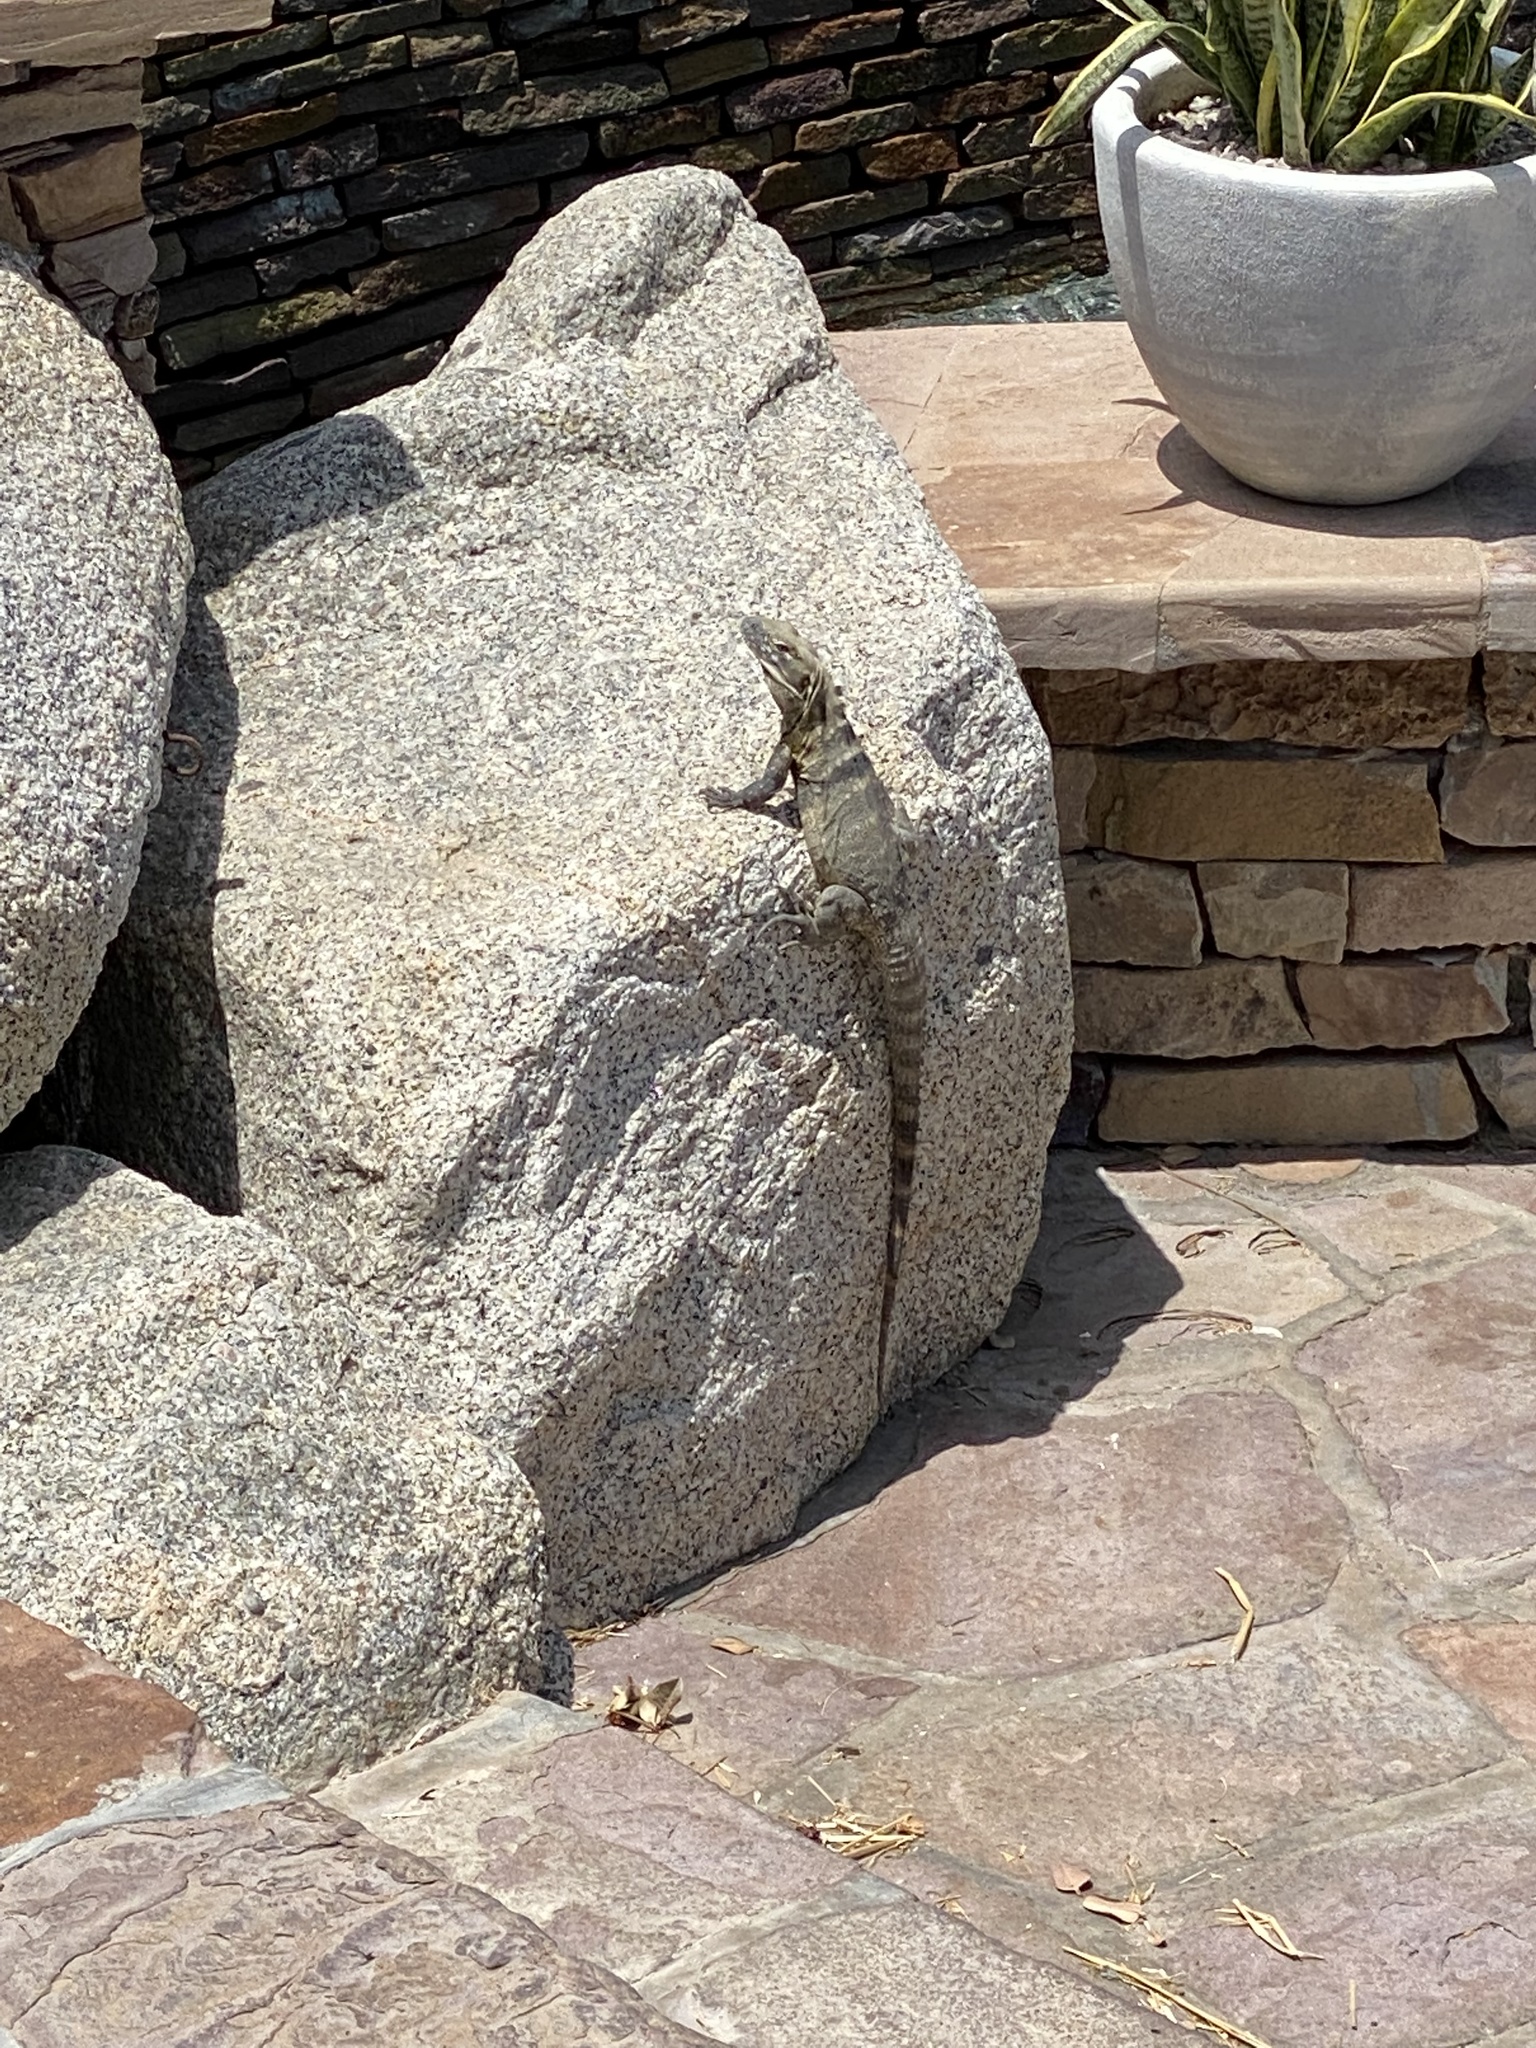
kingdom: Animalia
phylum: Chordata
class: Squamata
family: Iguanidae
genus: Ctenosaura
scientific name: Ctenosaura hemilopha
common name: Baja california spiny- tailed iguana
